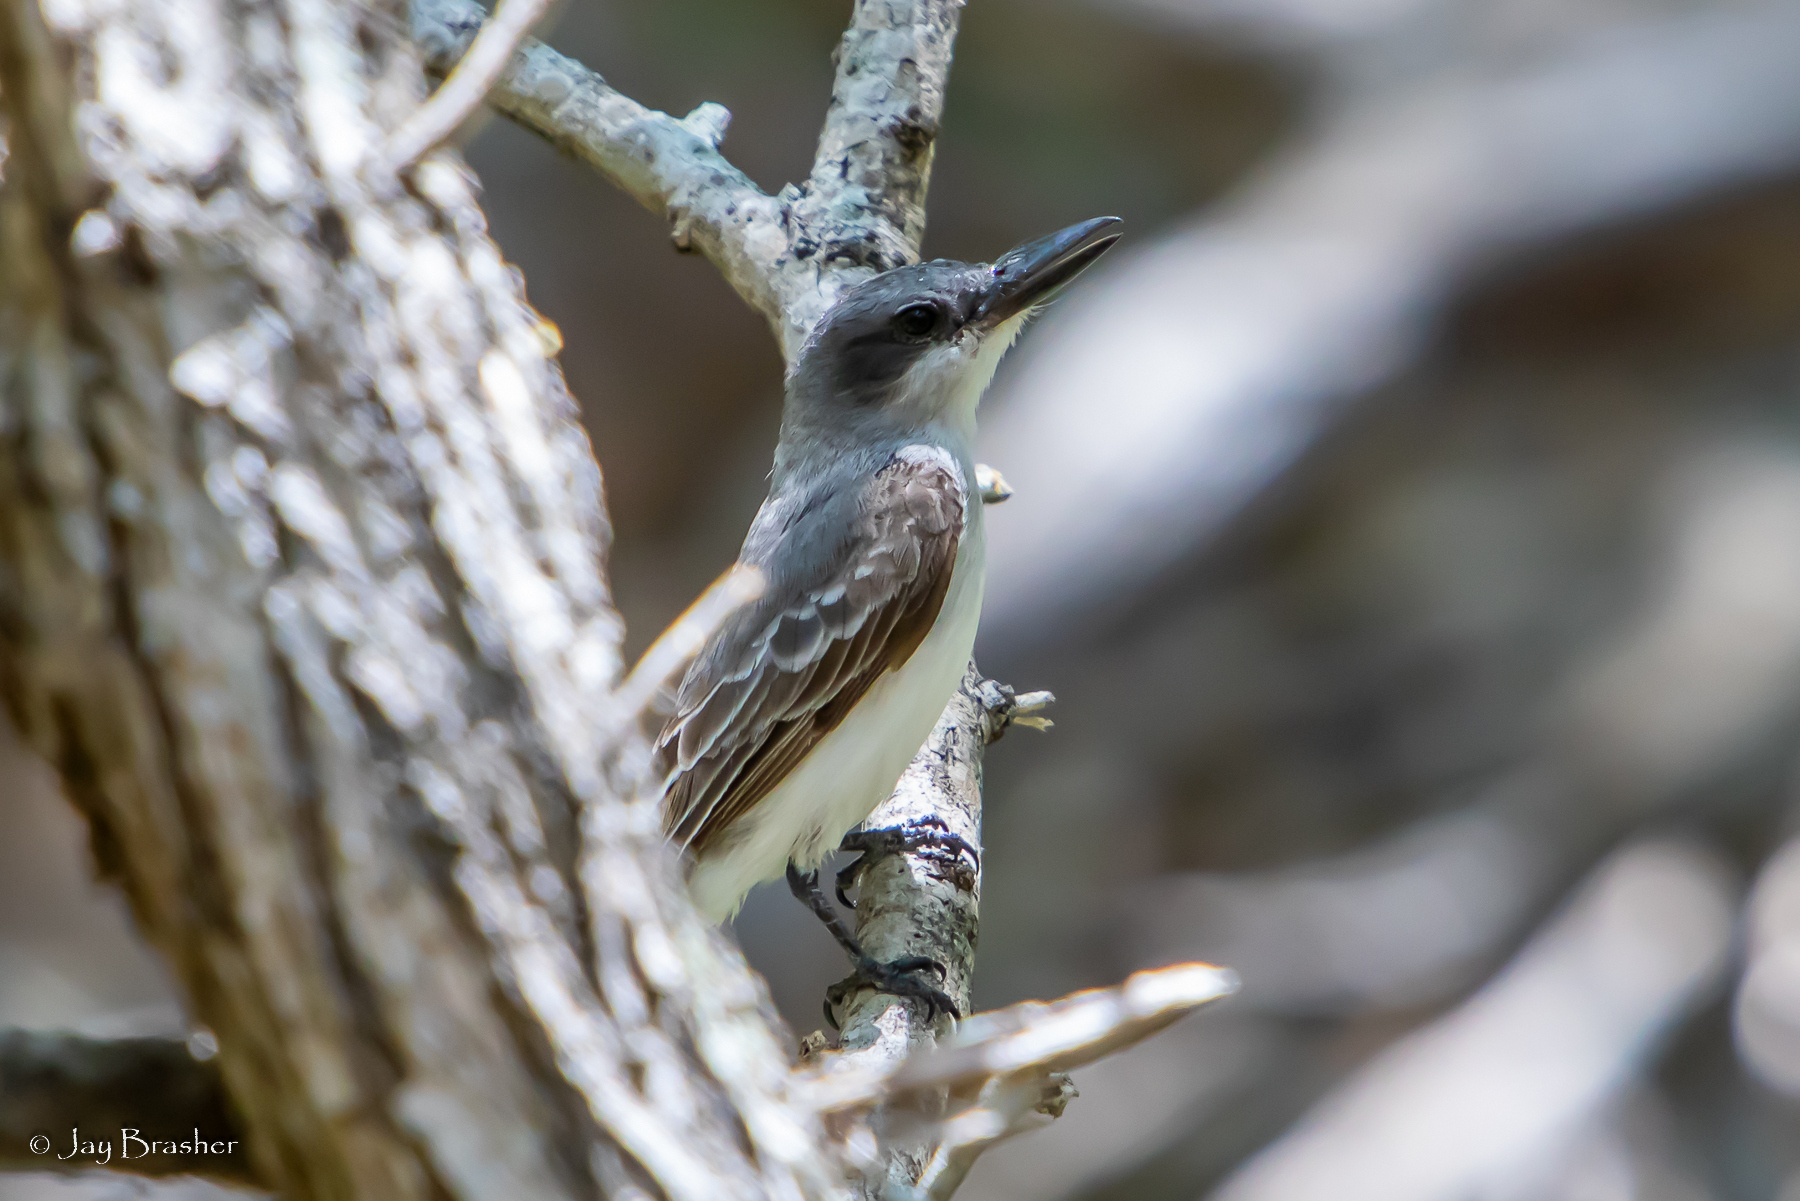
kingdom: Animalia
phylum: Chordata
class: Aves
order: Passeriformes
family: Tyrannidae
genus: Tyrannus
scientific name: Tyrannus dominicensis
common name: Gray kingbird
